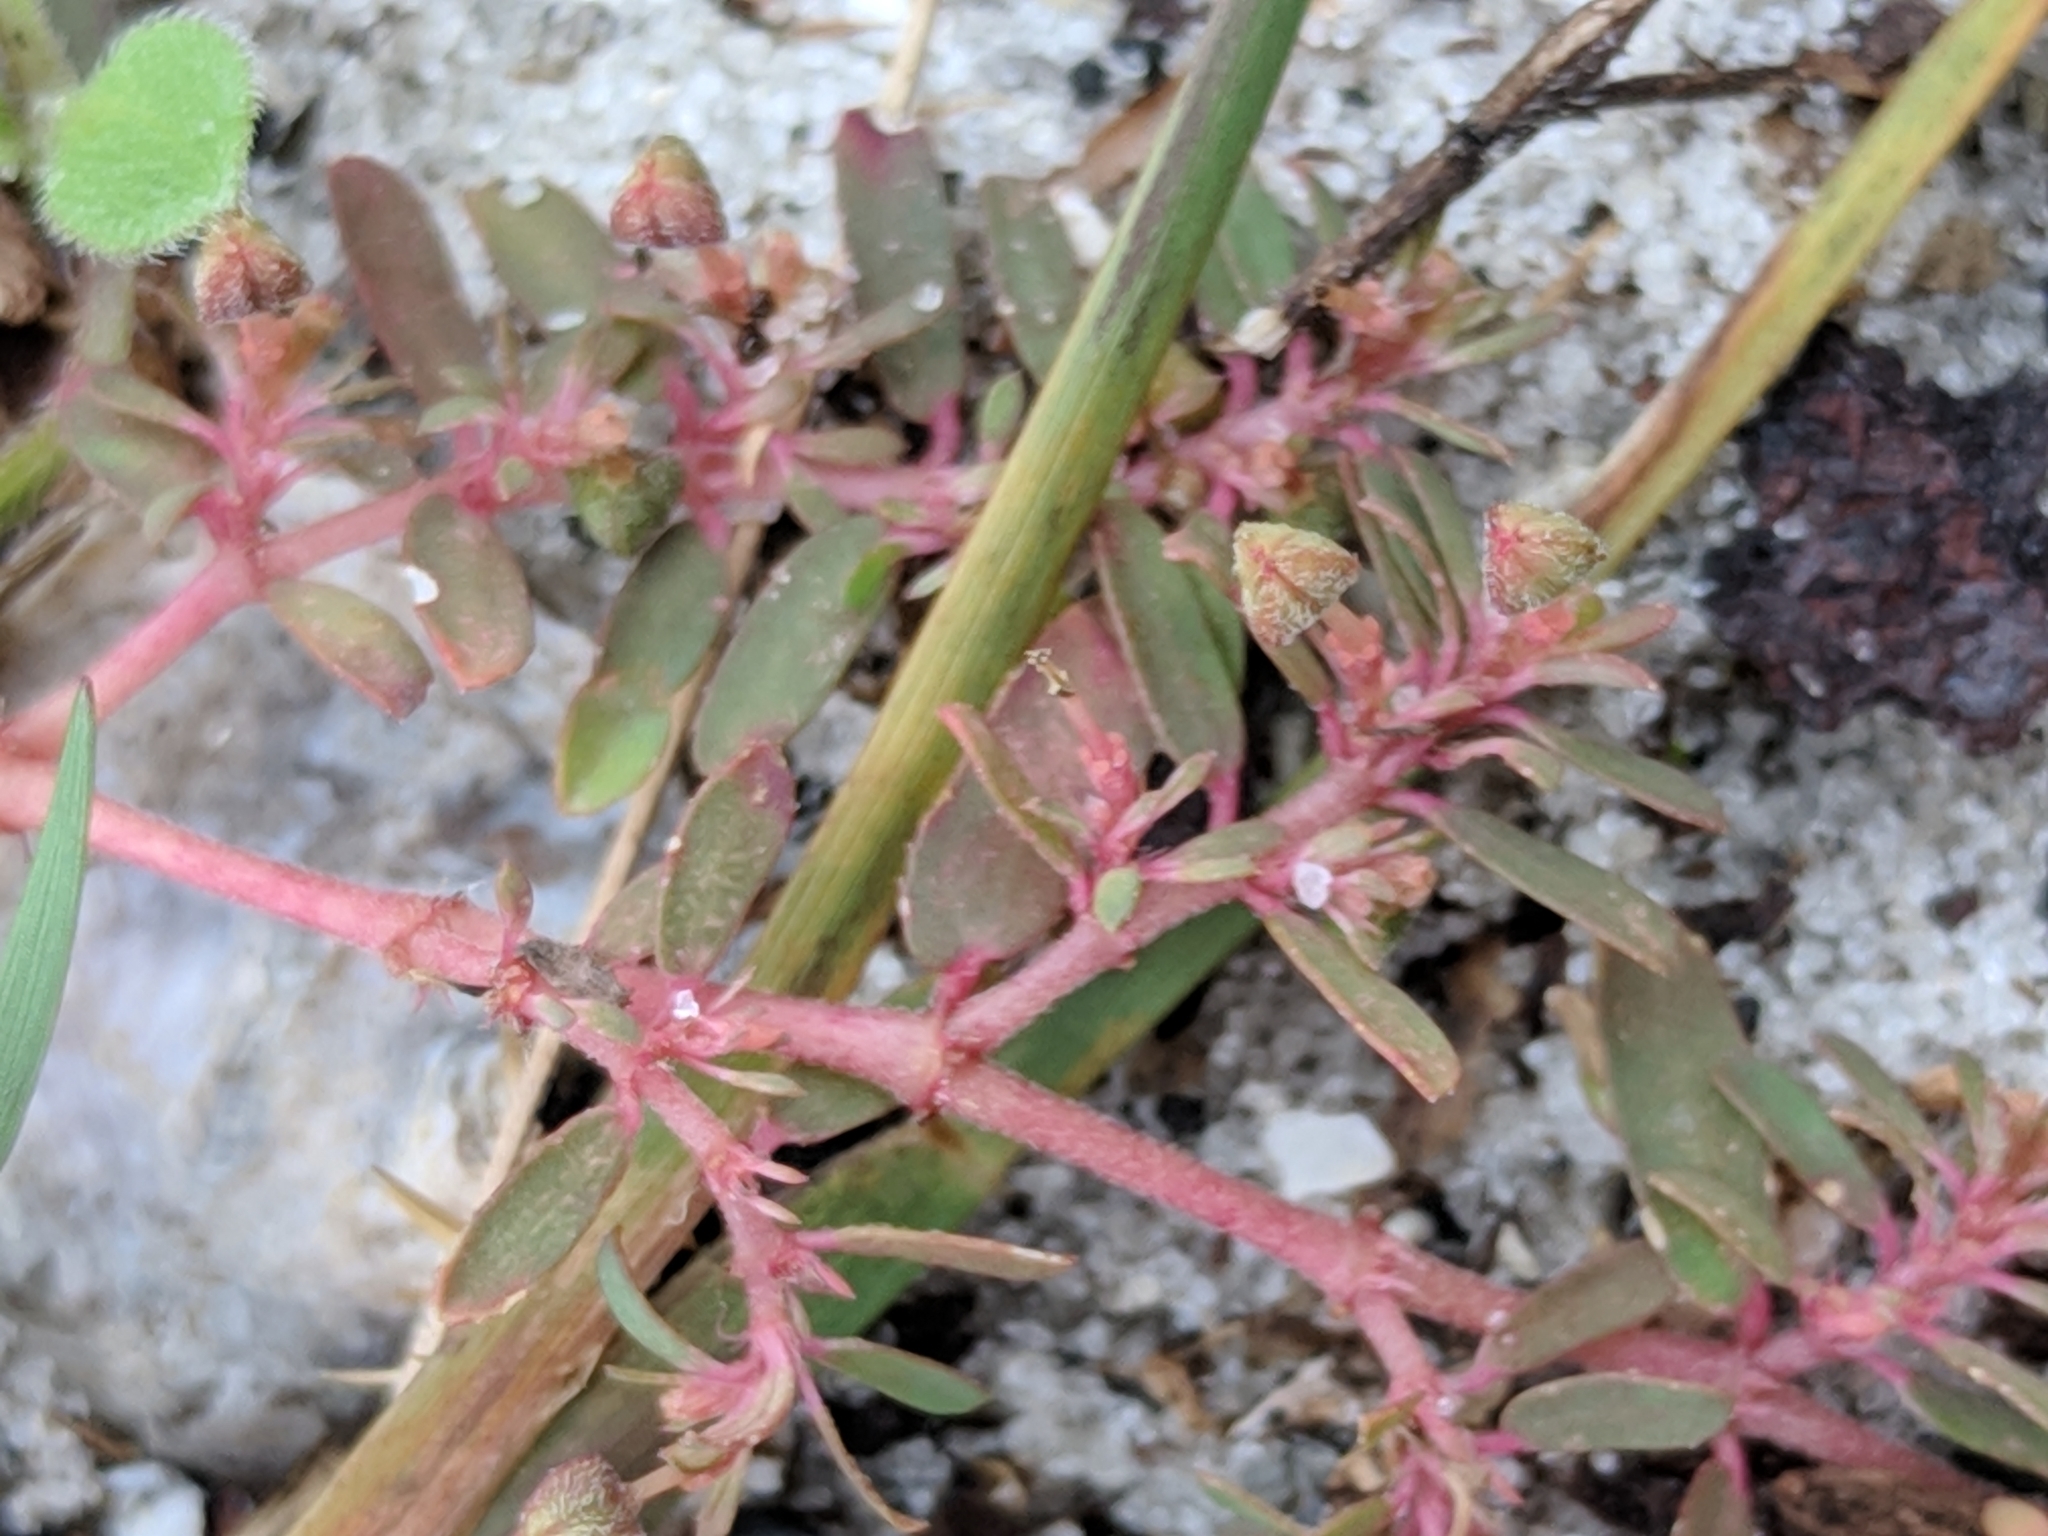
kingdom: Plantae
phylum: Tracheophyta
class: Magnoliopsida
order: Malpighiales
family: Euphorbiaceae
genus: Euphorbia
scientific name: Euphorbia maculata
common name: Spotted spurge
